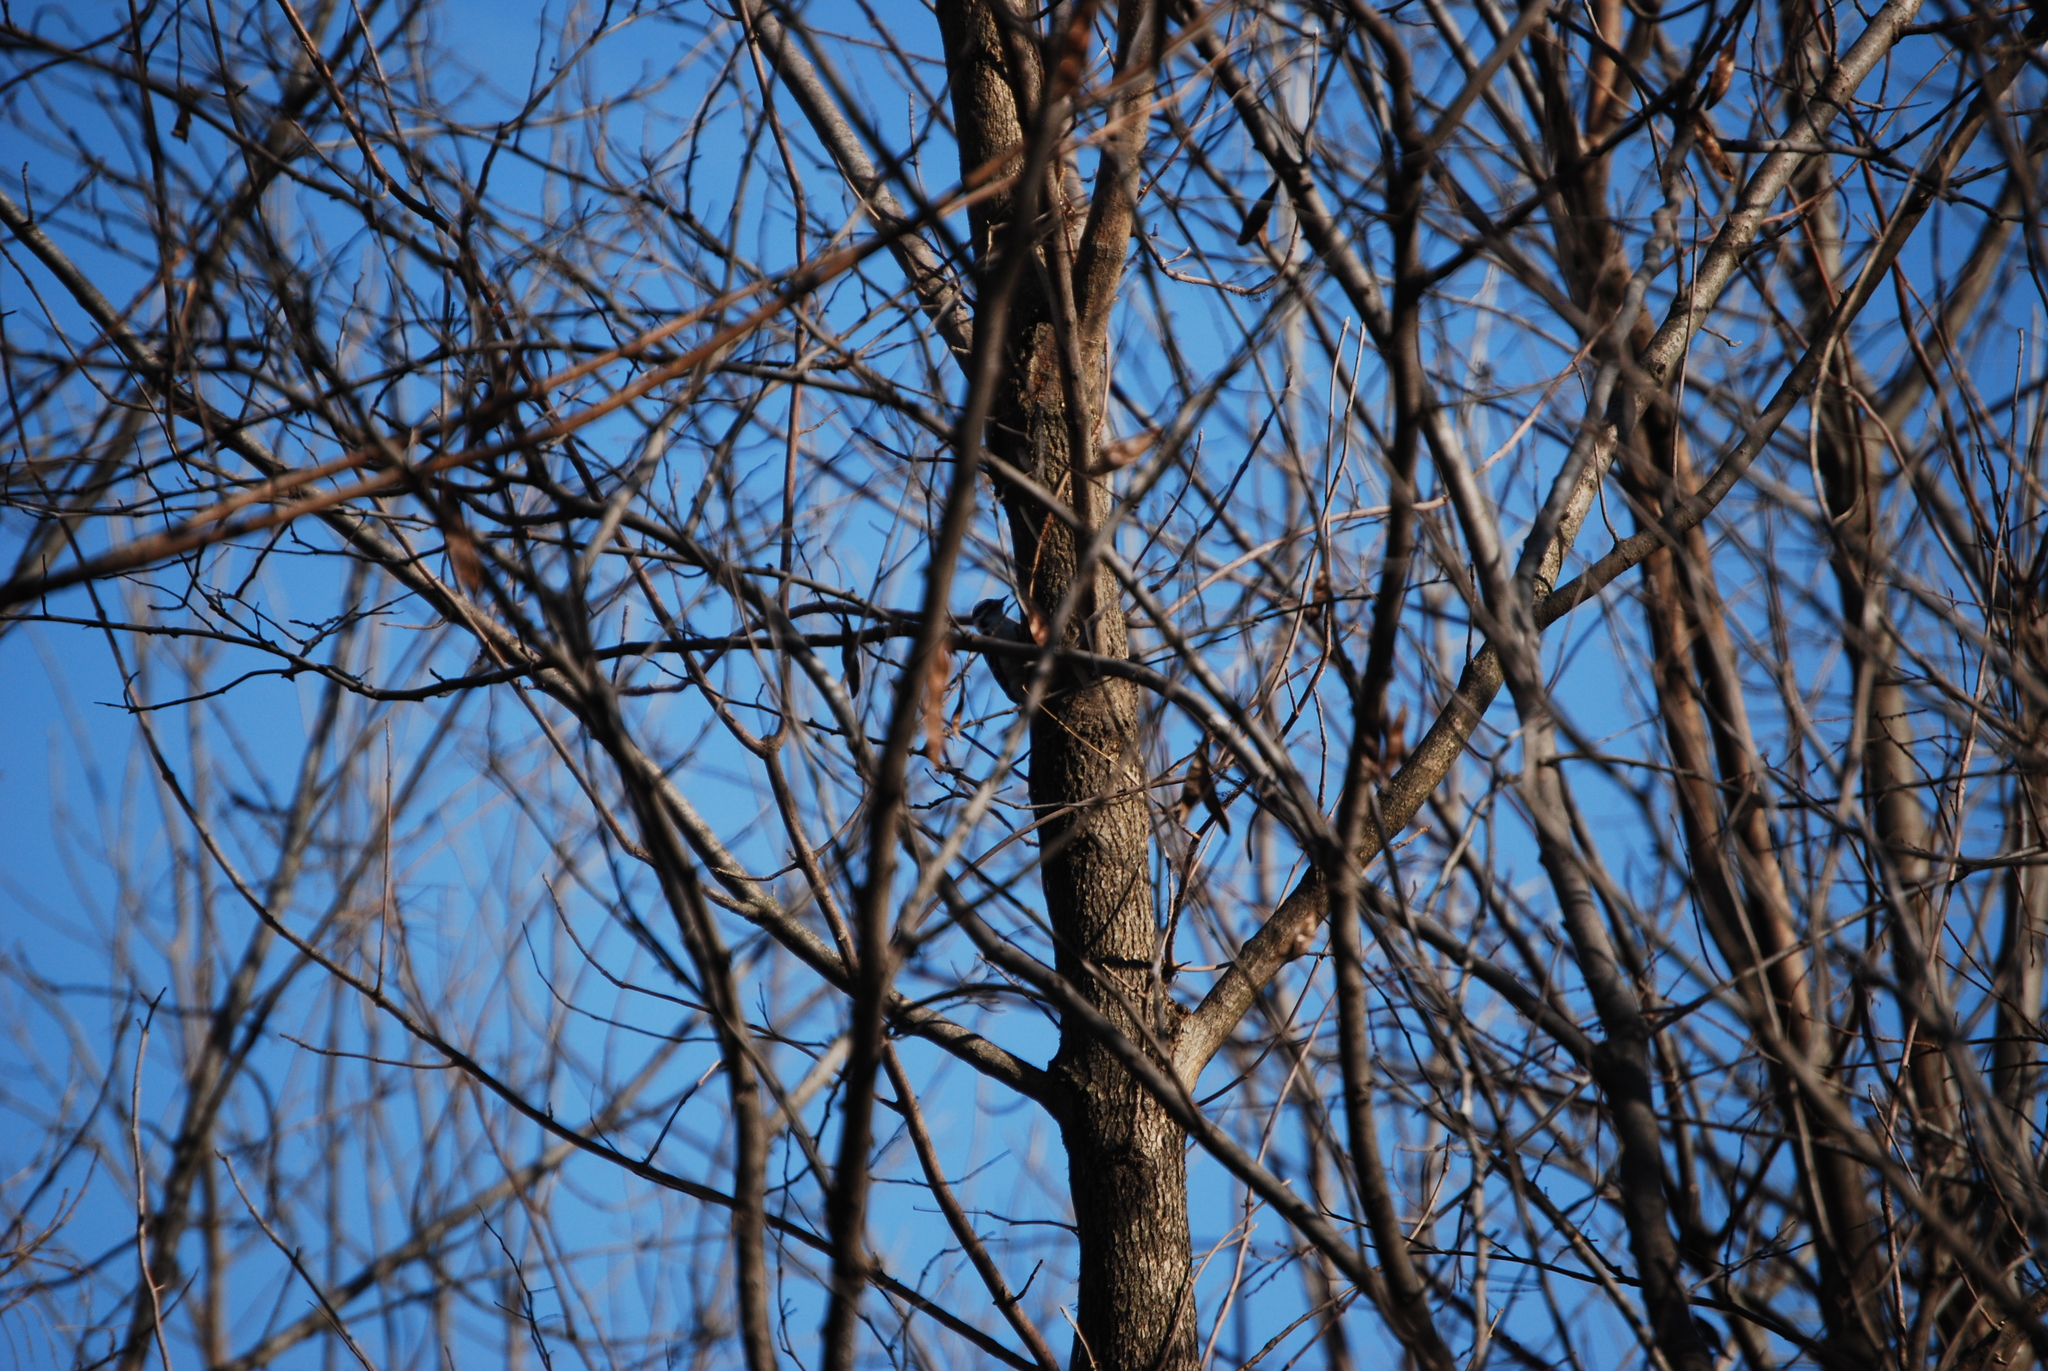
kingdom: Animalia
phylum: Chordata
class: Aves
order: Piciformes
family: Picidae
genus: Dryobates
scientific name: Dryobates pubescens
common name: Downy woodpecker
